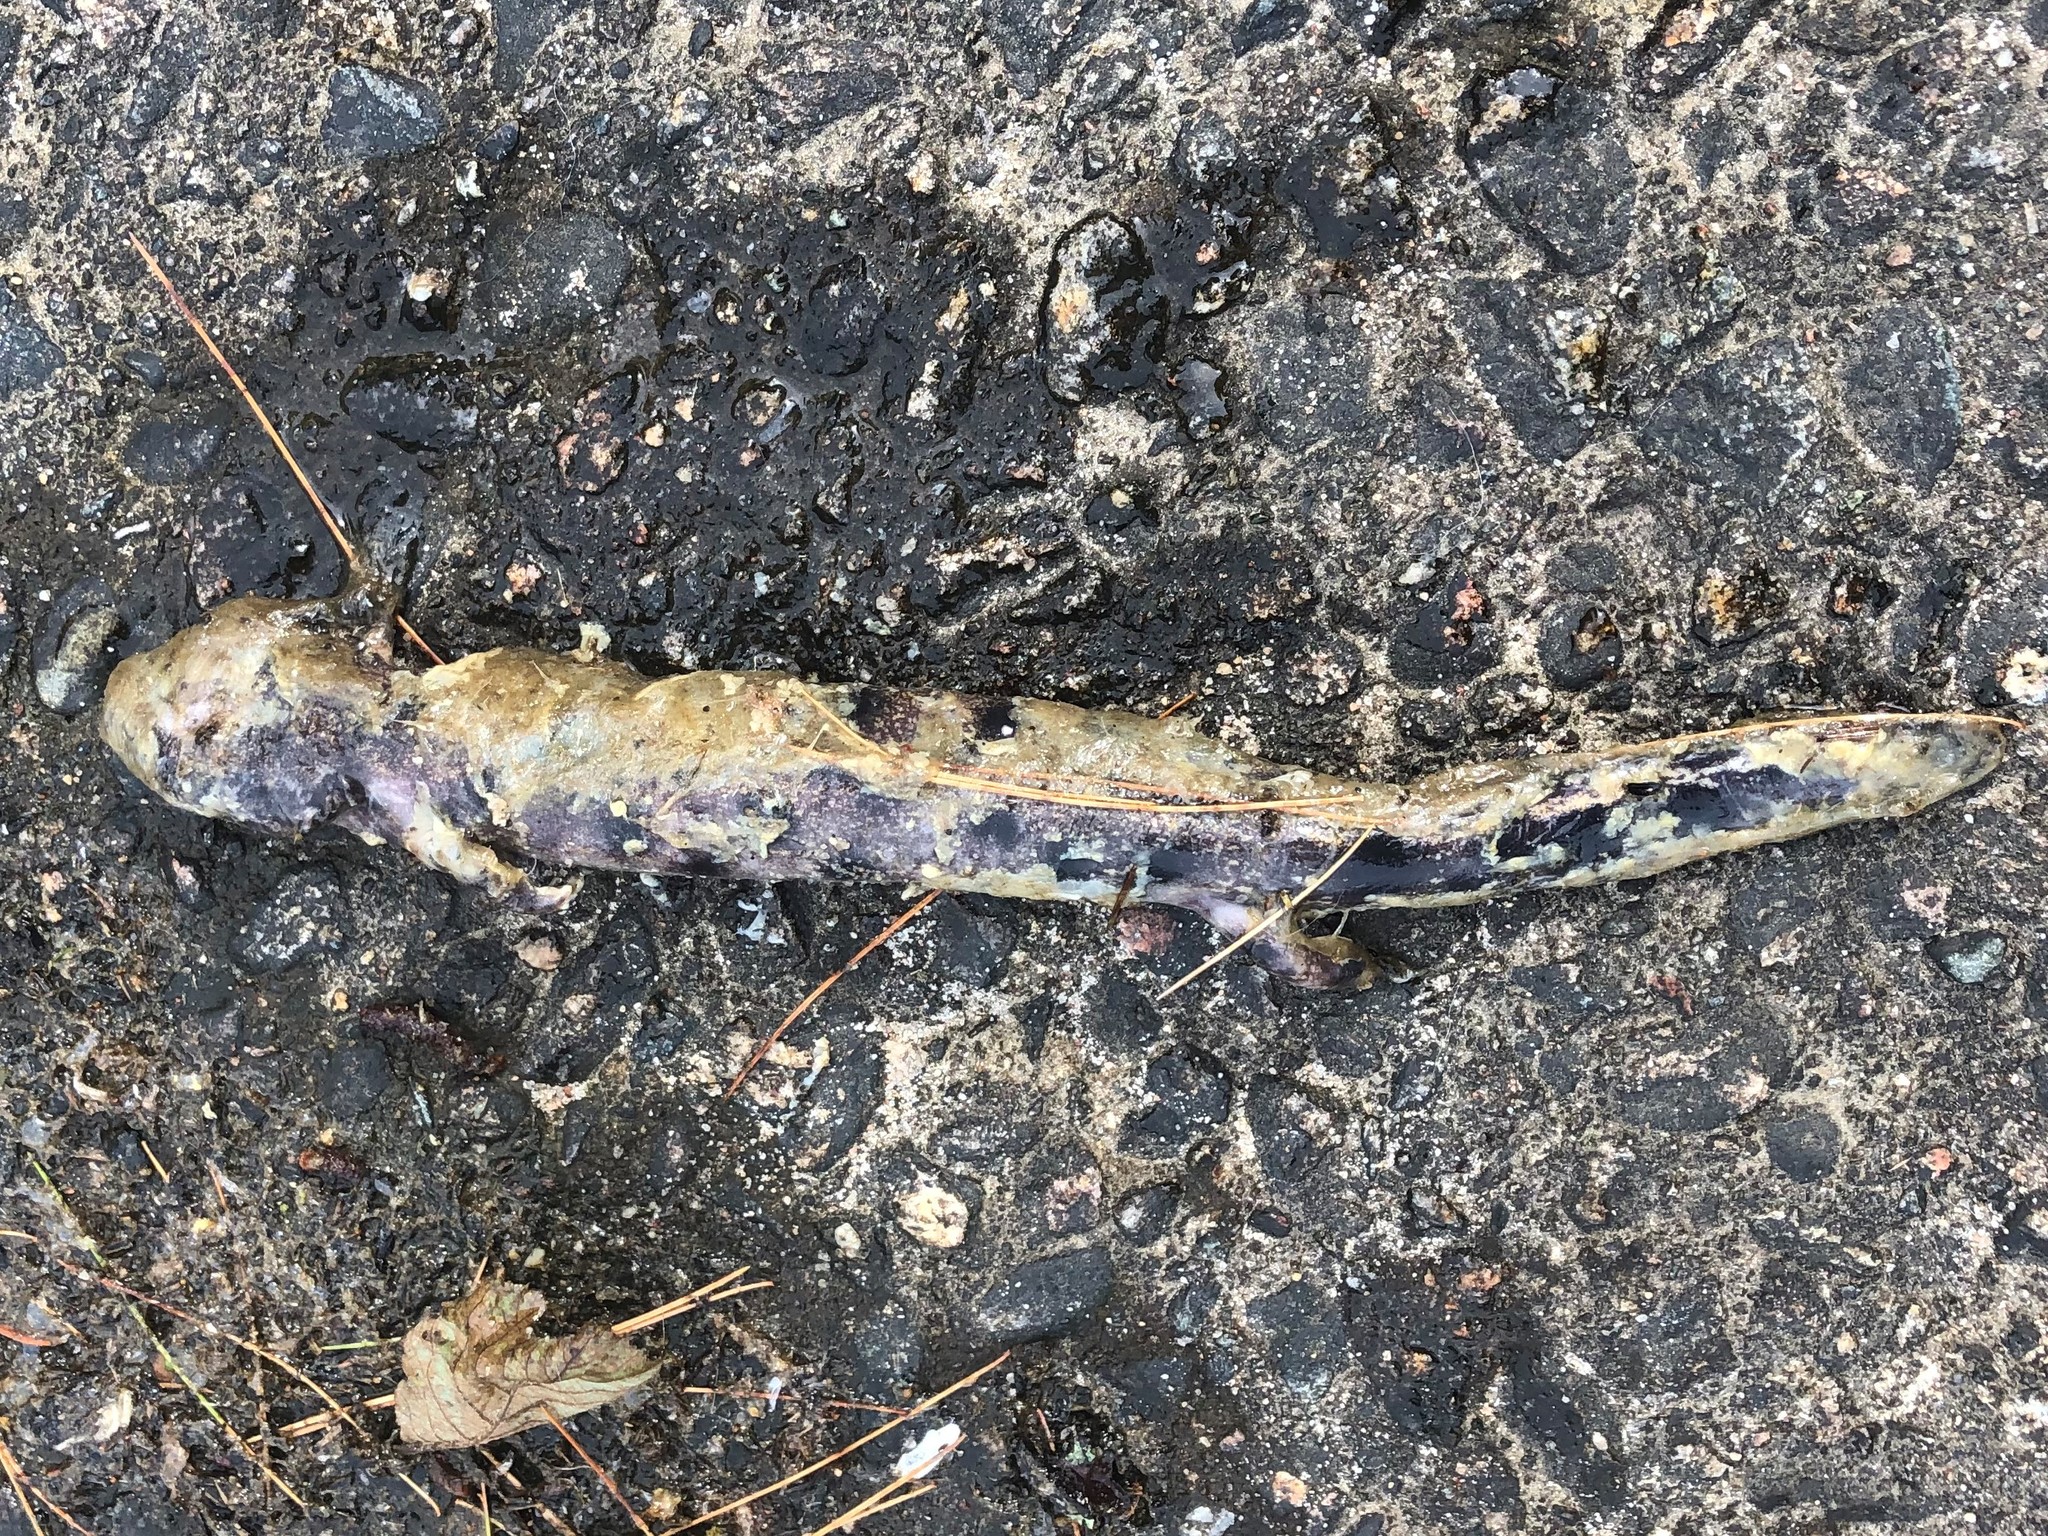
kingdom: Animalia
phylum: Chordata
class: Amphibia
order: Caudata
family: Proteidae
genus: Necturus
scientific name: Necturus maculosus
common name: Mudpuppy
